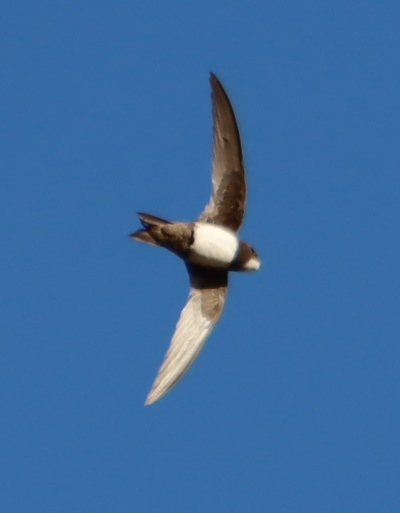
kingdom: Animalia
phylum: Chordata
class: Aves
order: Apodiformes
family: Apodidae
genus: Tachymarptis
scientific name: Tachymarptis melba
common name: Alpine swift
